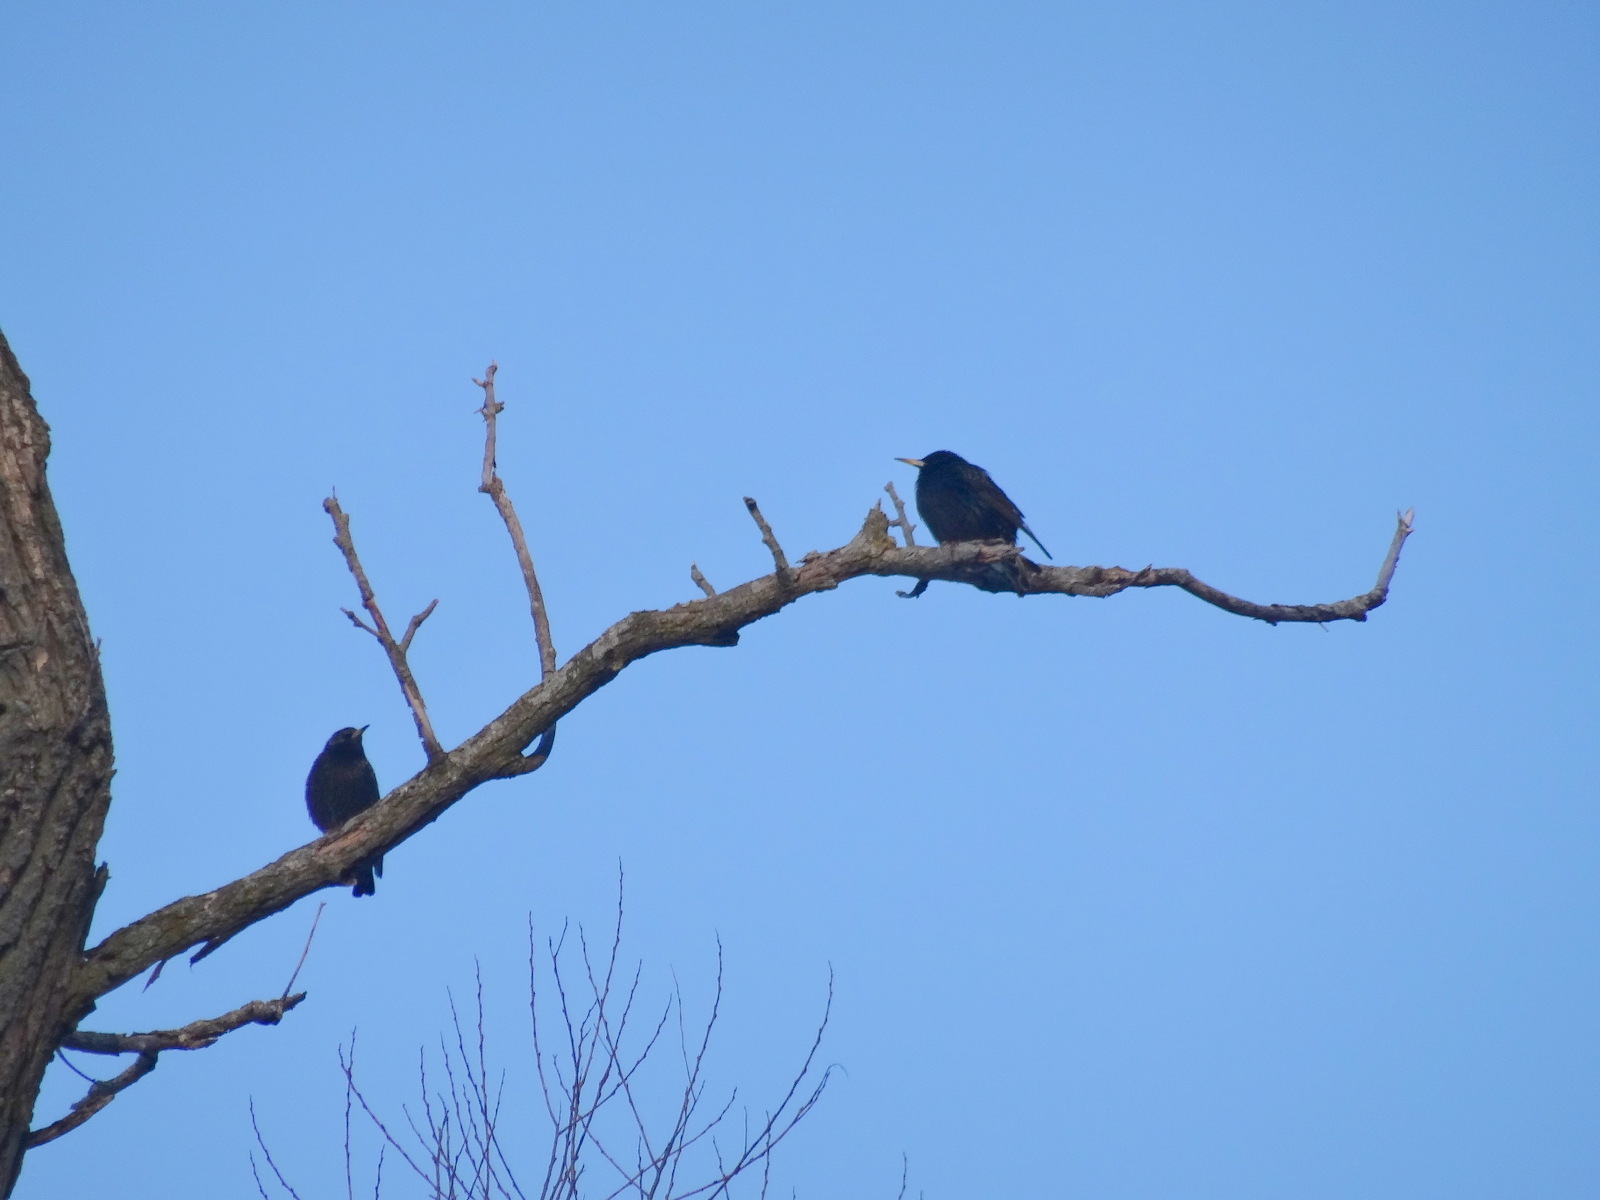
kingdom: Animalia
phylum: Chordata
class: Aves
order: Passeriformes
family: Sturnidae
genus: Sturnus
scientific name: Sturnus vulgaris
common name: Common starling
